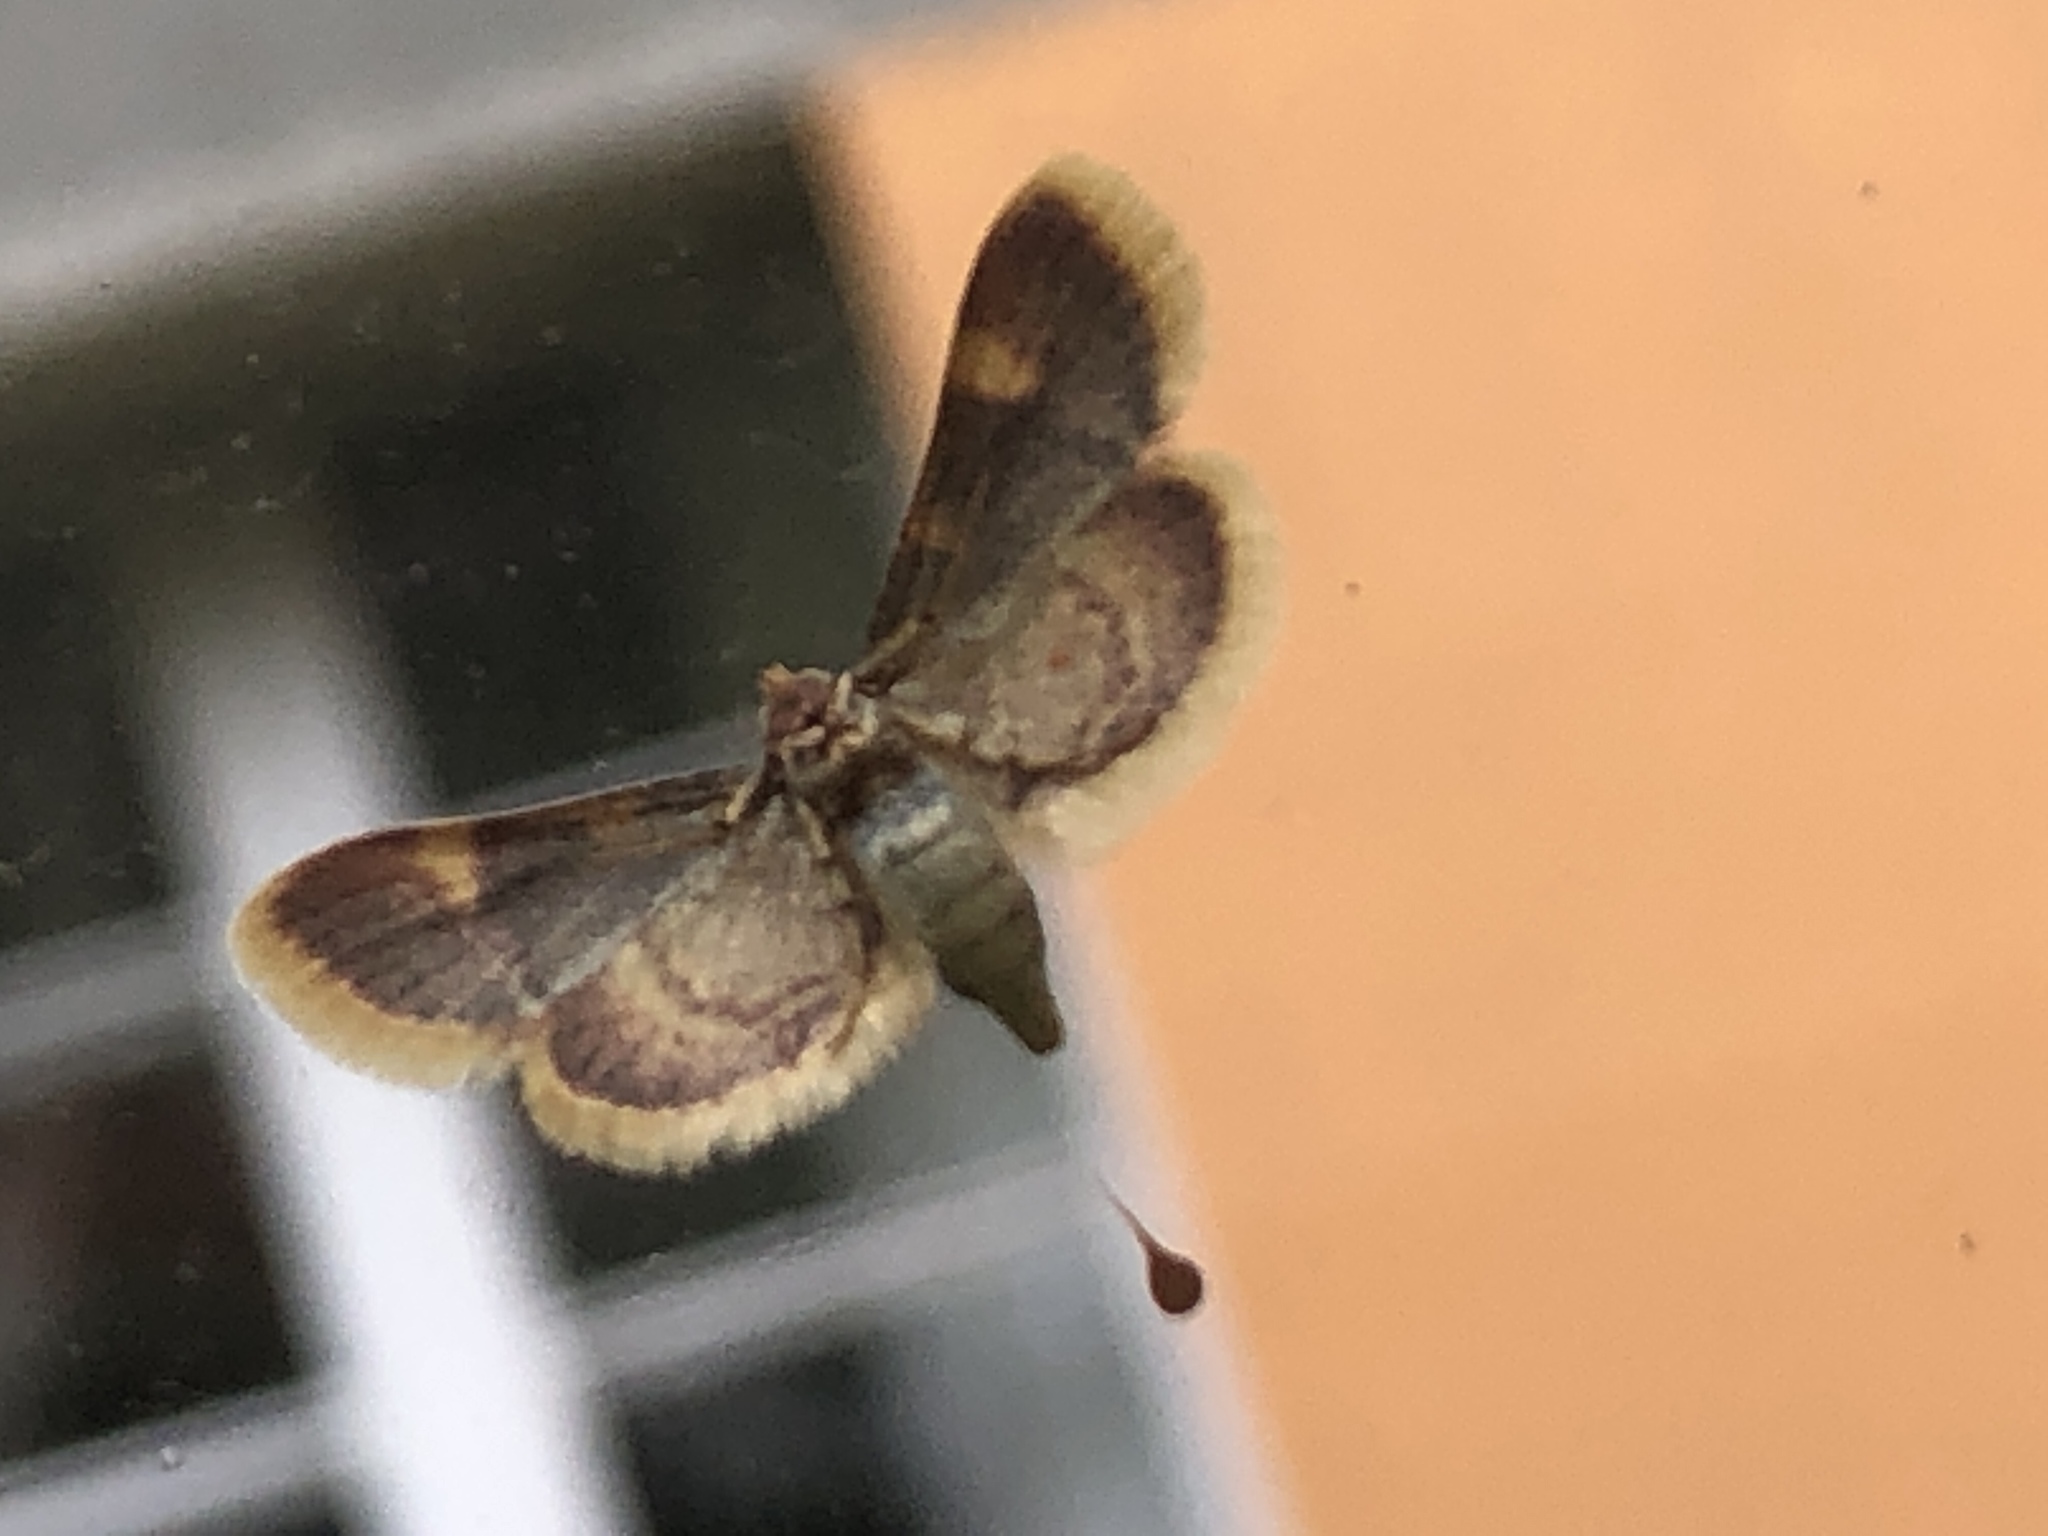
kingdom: Animalia
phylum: Arthropoda
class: Insecta
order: Lepidoptera
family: Pyralidae
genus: Hypsopygia
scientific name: Hypsopygia costalis
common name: Gold triangle
